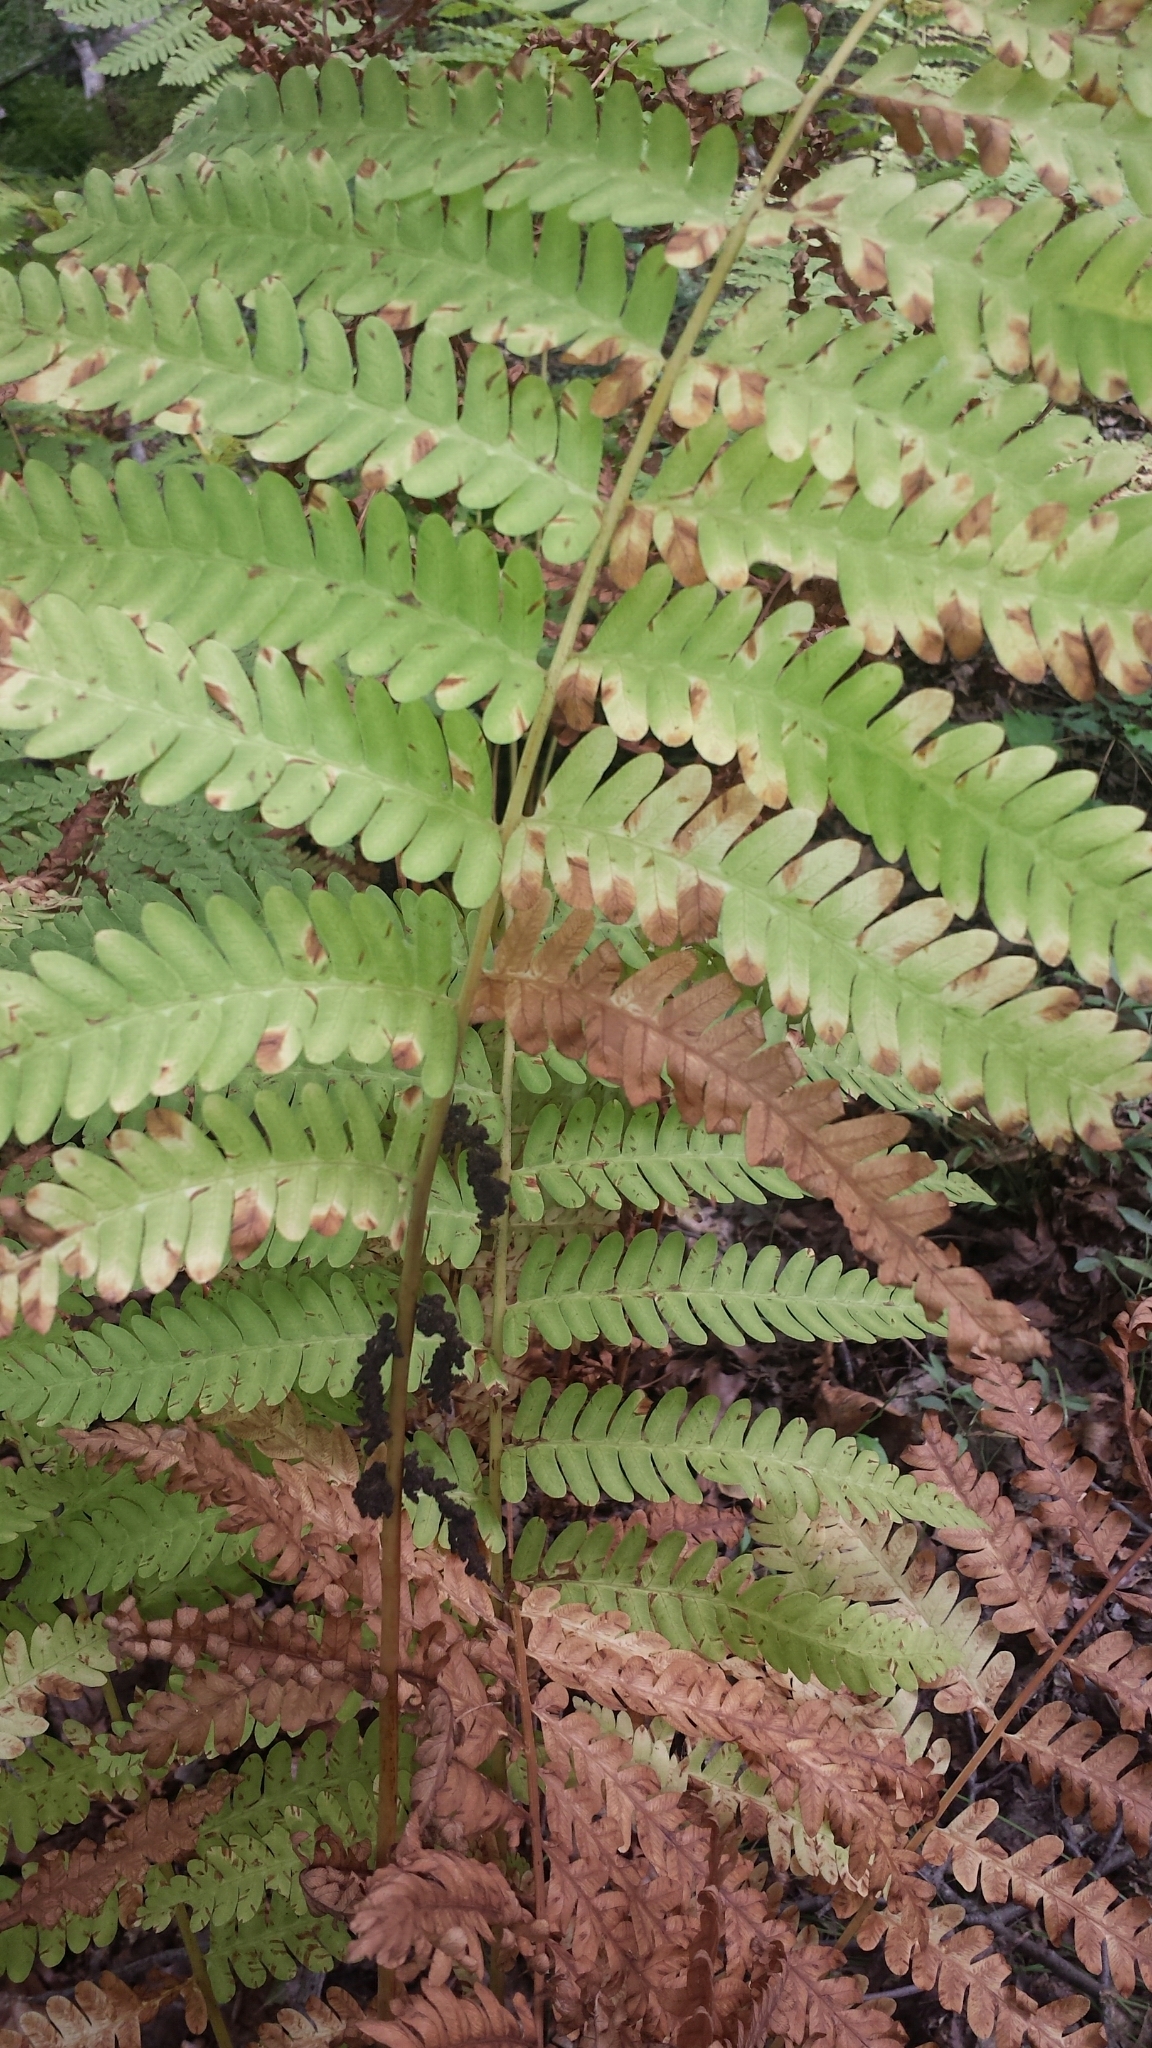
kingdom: Plantae
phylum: Tracheophyta
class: Polypodiopsida
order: Osmundales
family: Osmundaceae
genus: Claytosmunda
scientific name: Claytosmunda claytoniana
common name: Clayton's fern
